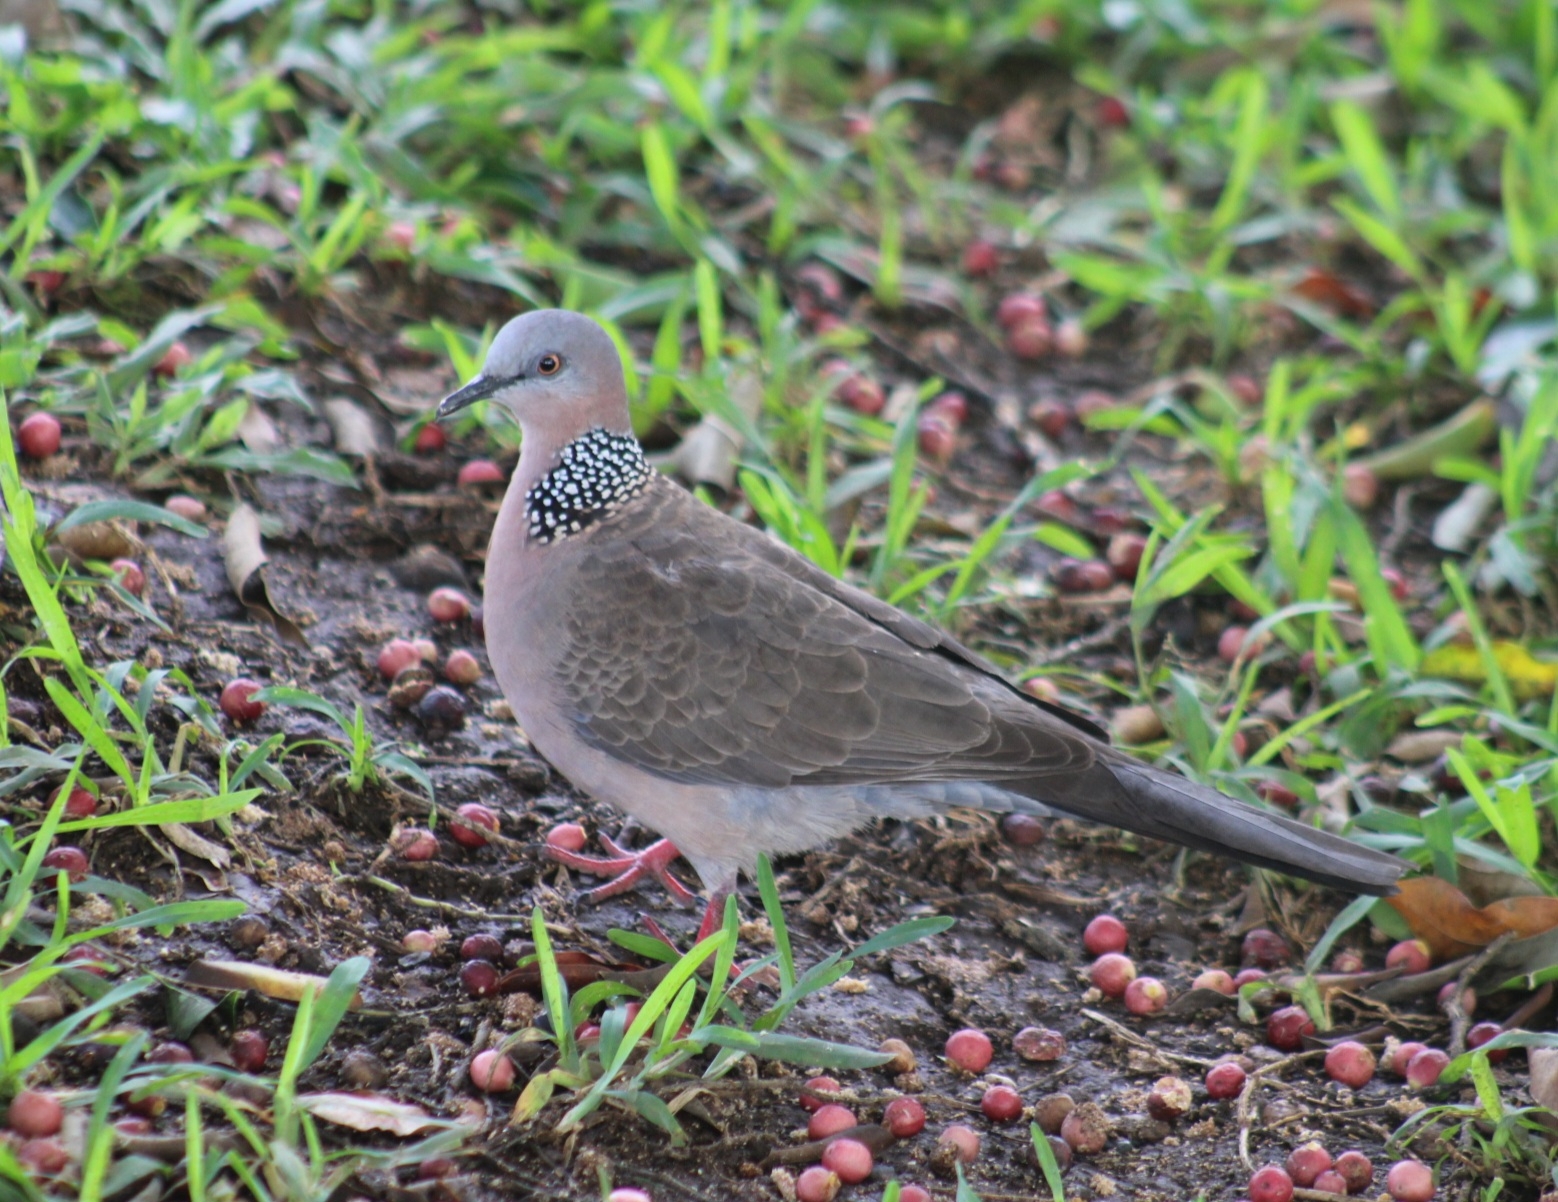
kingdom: Animalia
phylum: Chordata
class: Aves
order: Columbiformes
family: Columbidae
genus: Spilopelia
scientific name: Spilopelia chinensis
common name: Spotted dove
